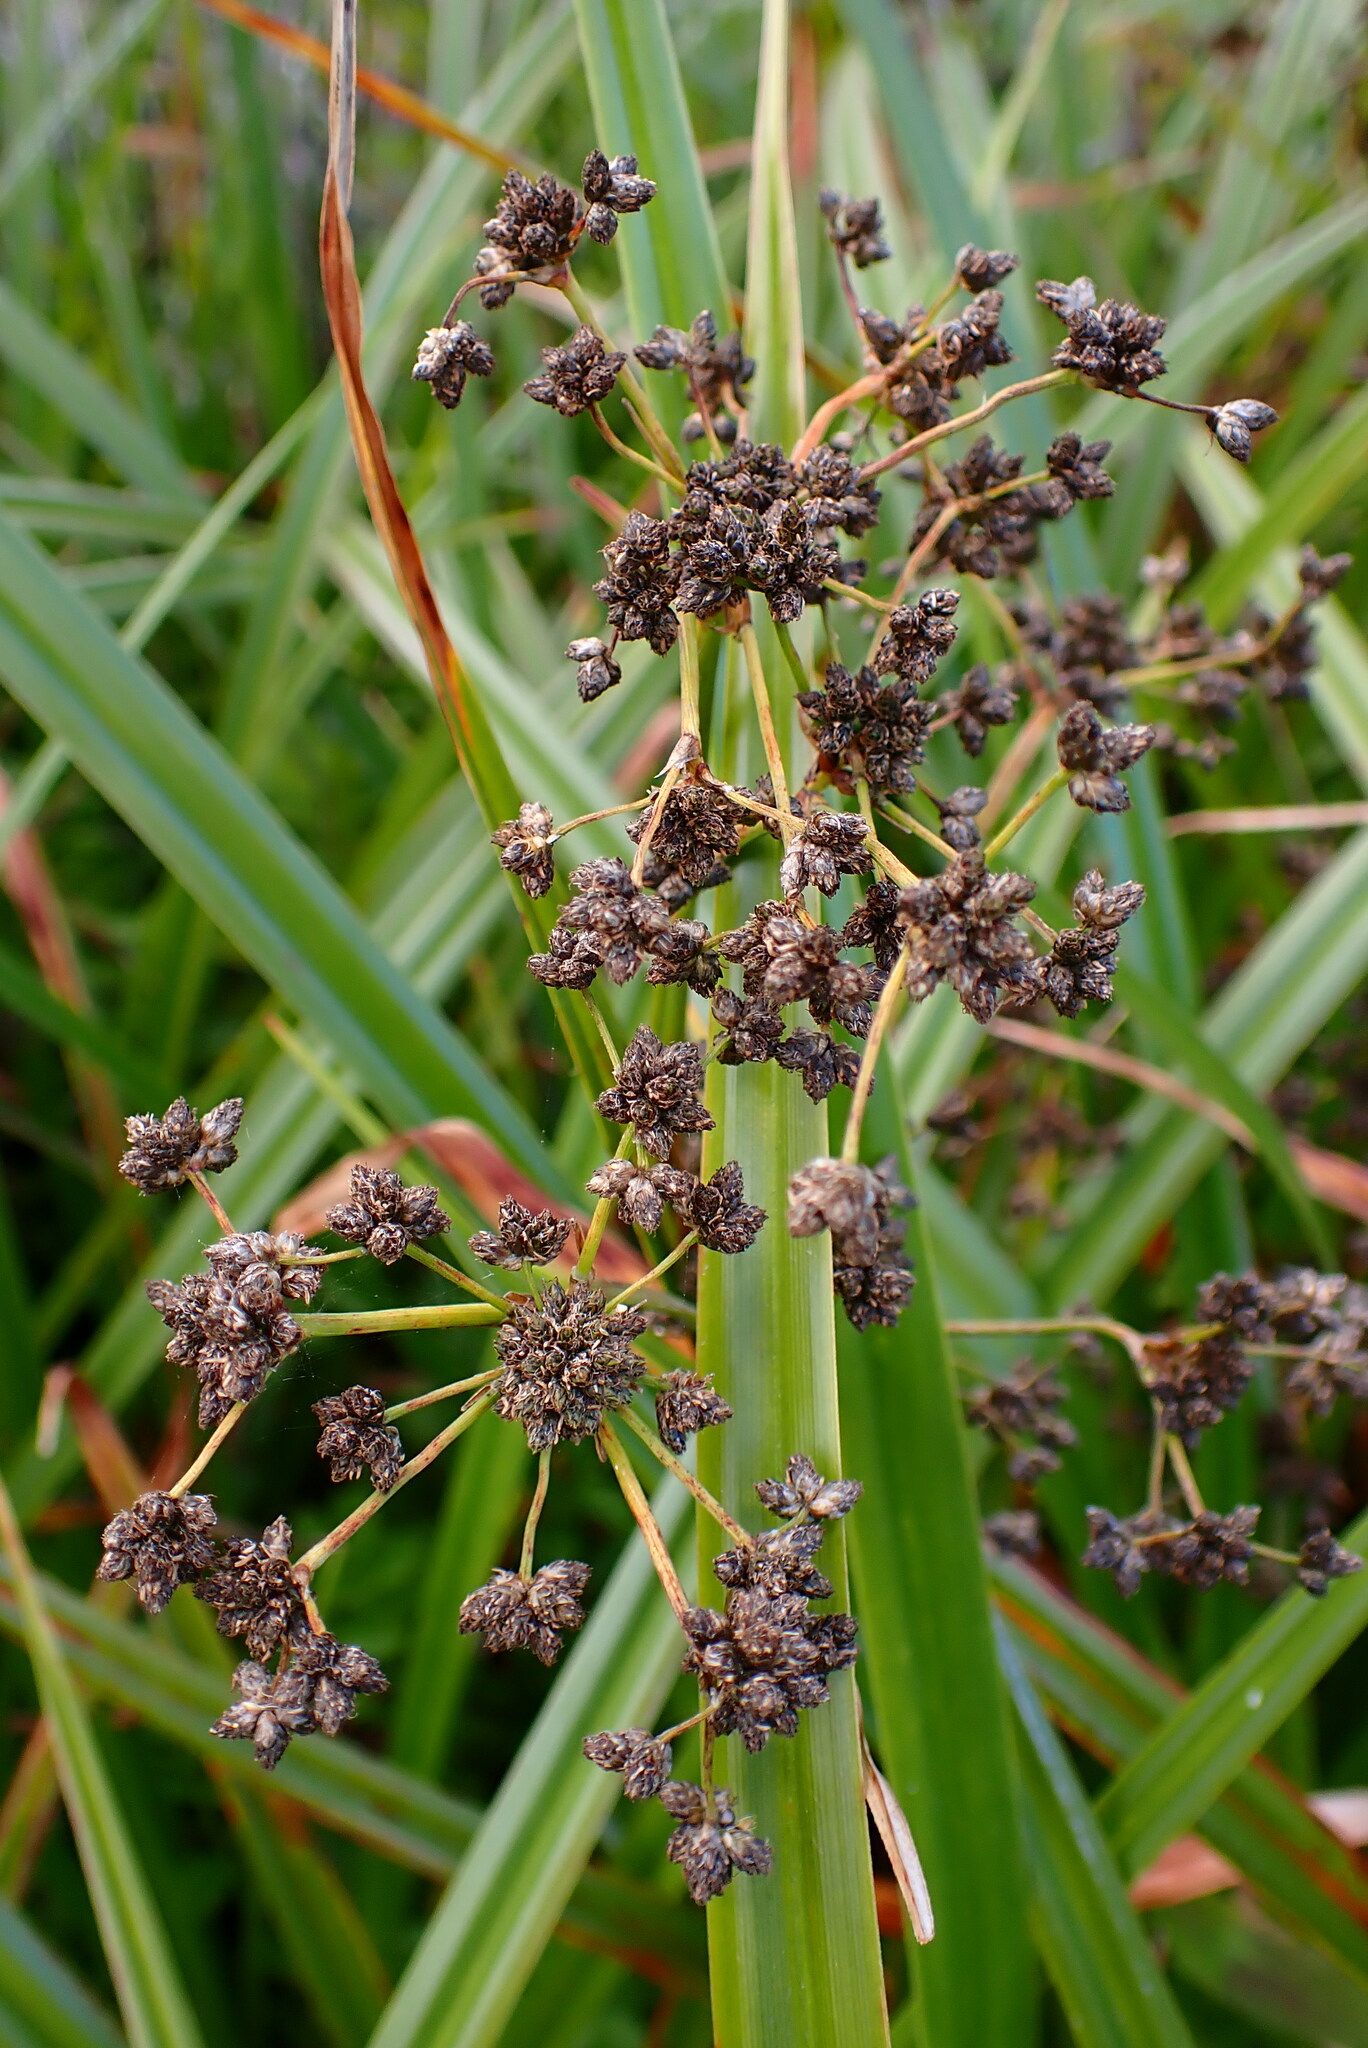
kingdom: Plantae
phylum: Tracheophyta
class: Liliopsida
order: Poales
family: Cyperaceae
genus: Scirpus
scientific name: Scirpus microcarpus
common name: Panicled bulrush
